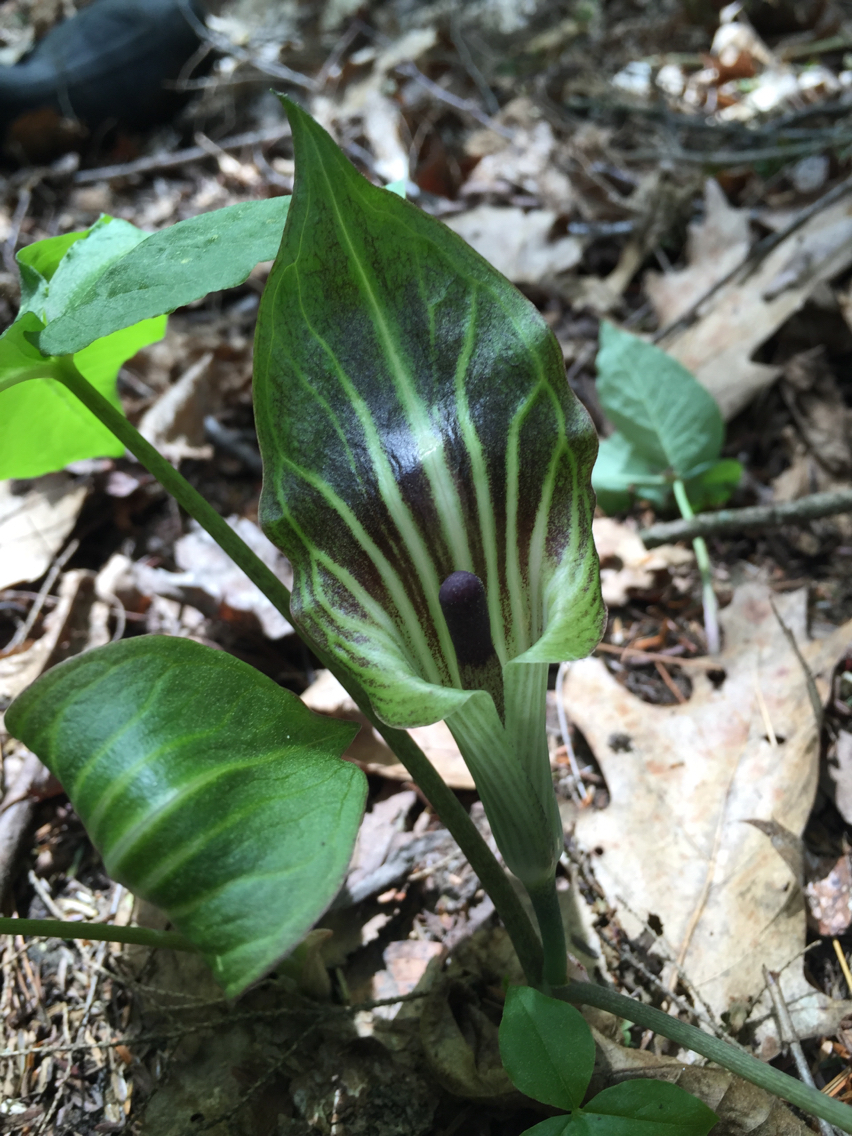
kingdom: Plantae
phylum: Tracheophyta
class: Liliopsida
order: Alismatales
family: Araceae
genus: Arisaema
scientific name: Arisaema triphyllum
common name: Jack-in-the-pulpit
